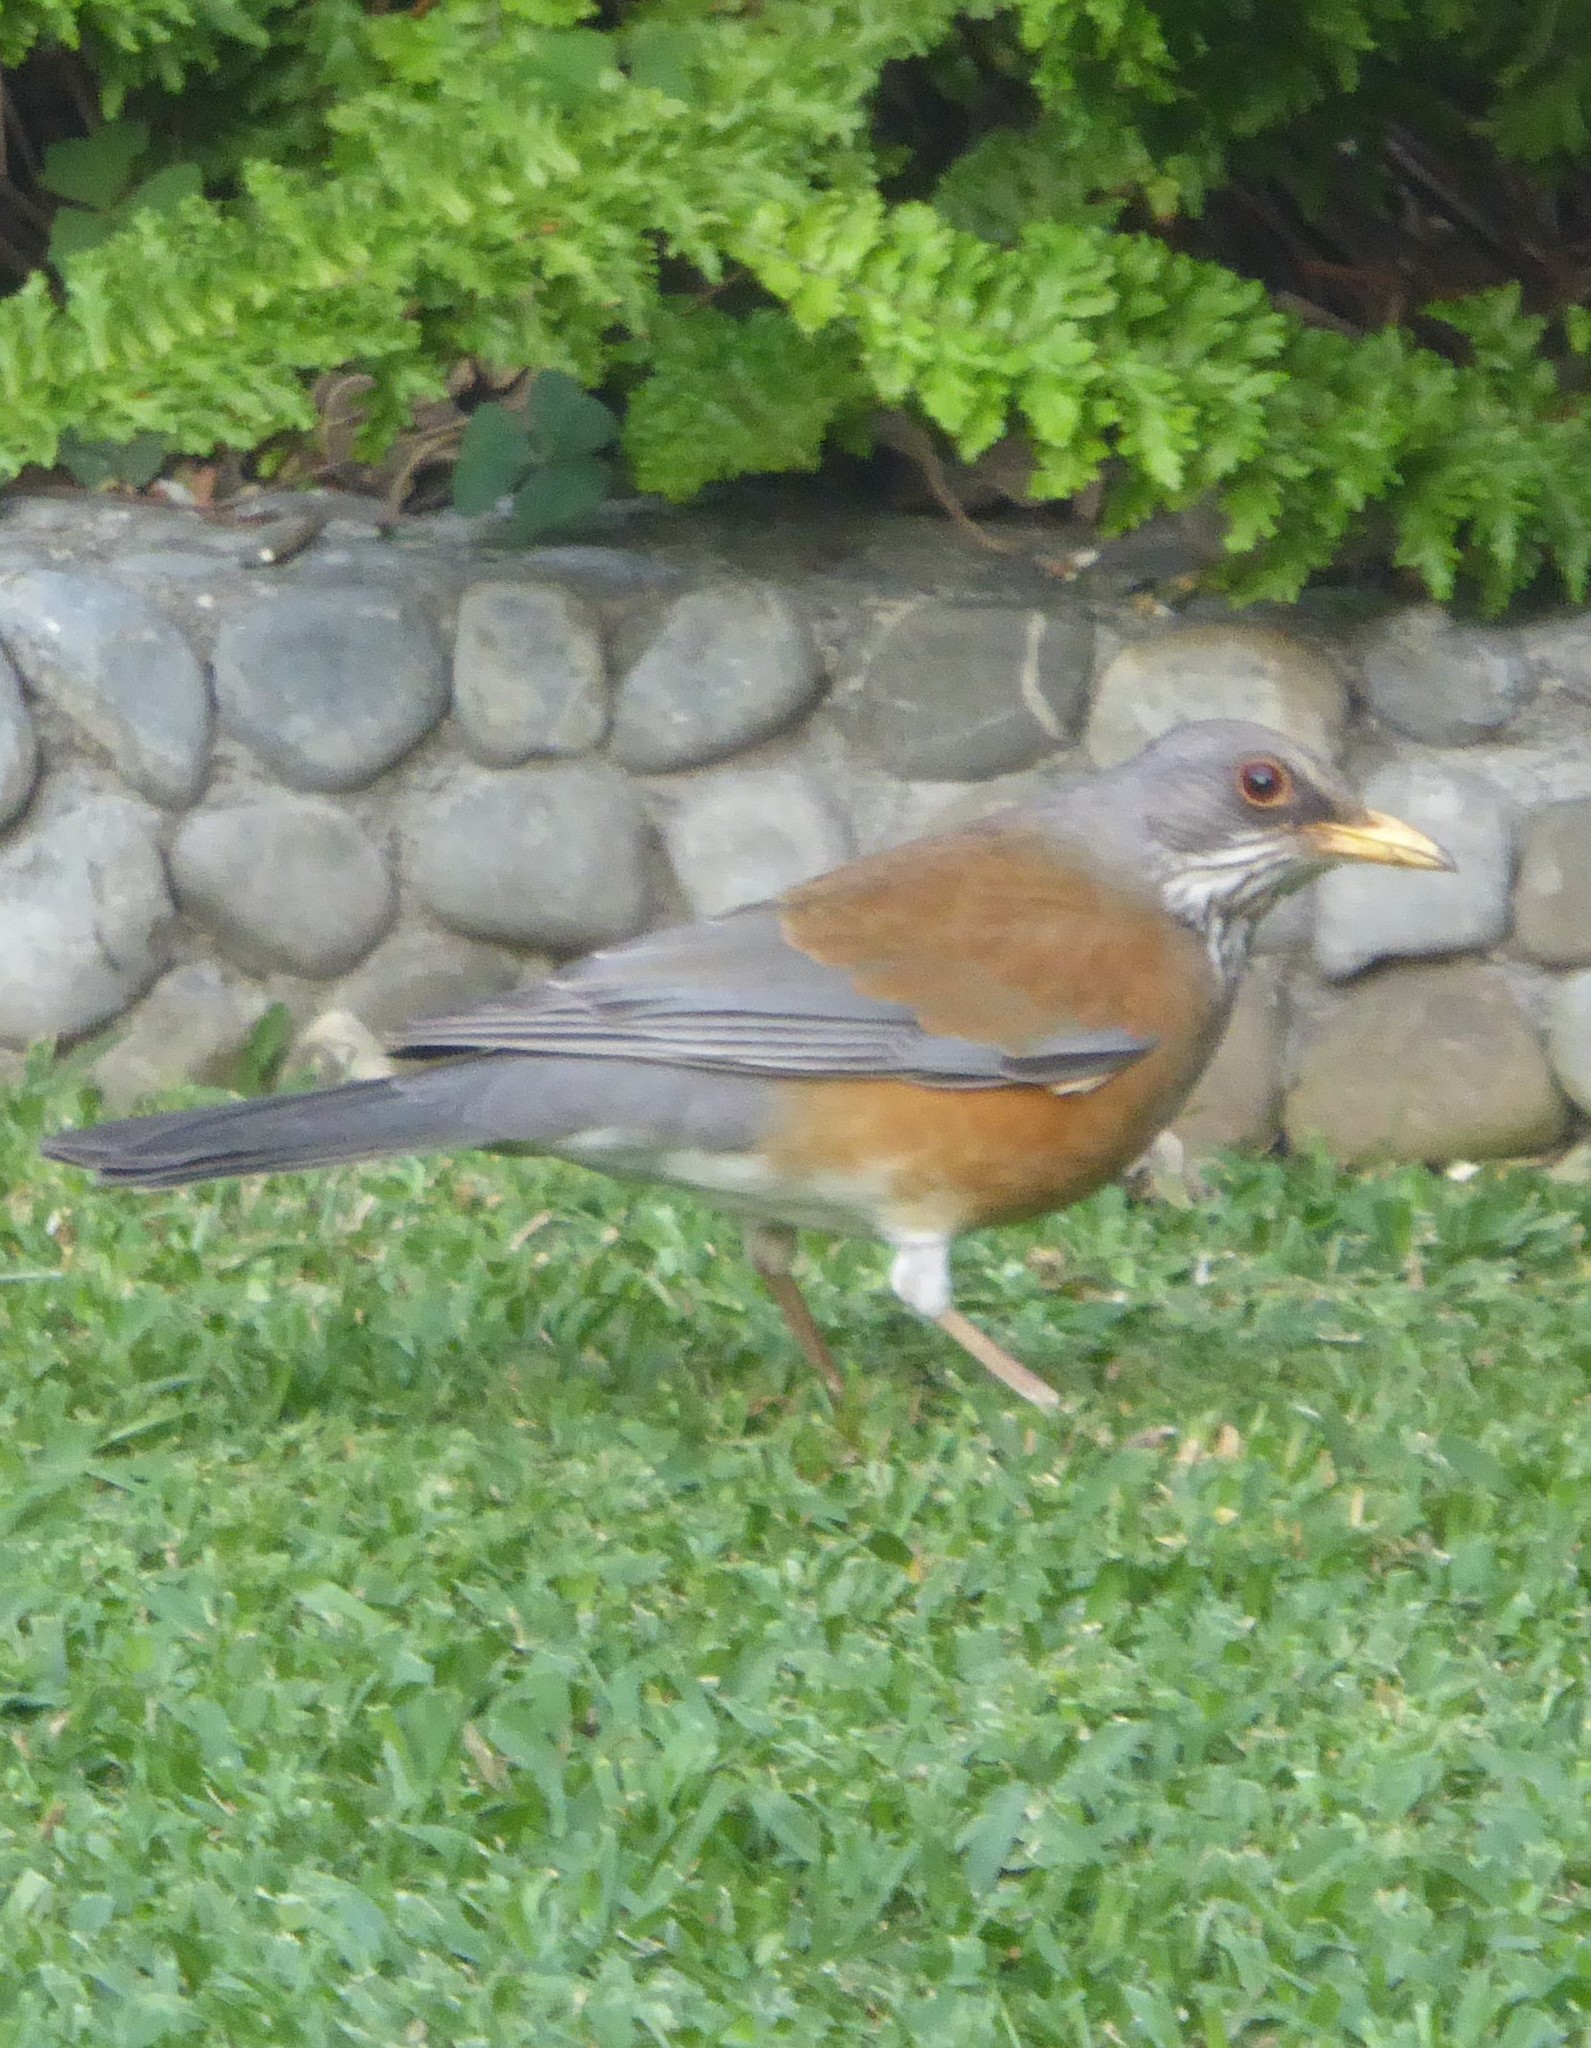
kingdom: Animalia
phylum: Chordata
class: Aves
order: Passeriformes
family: Turdidae
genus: Turdus
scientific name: Turdus rufopalliatus
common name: Rufous-backed robin
